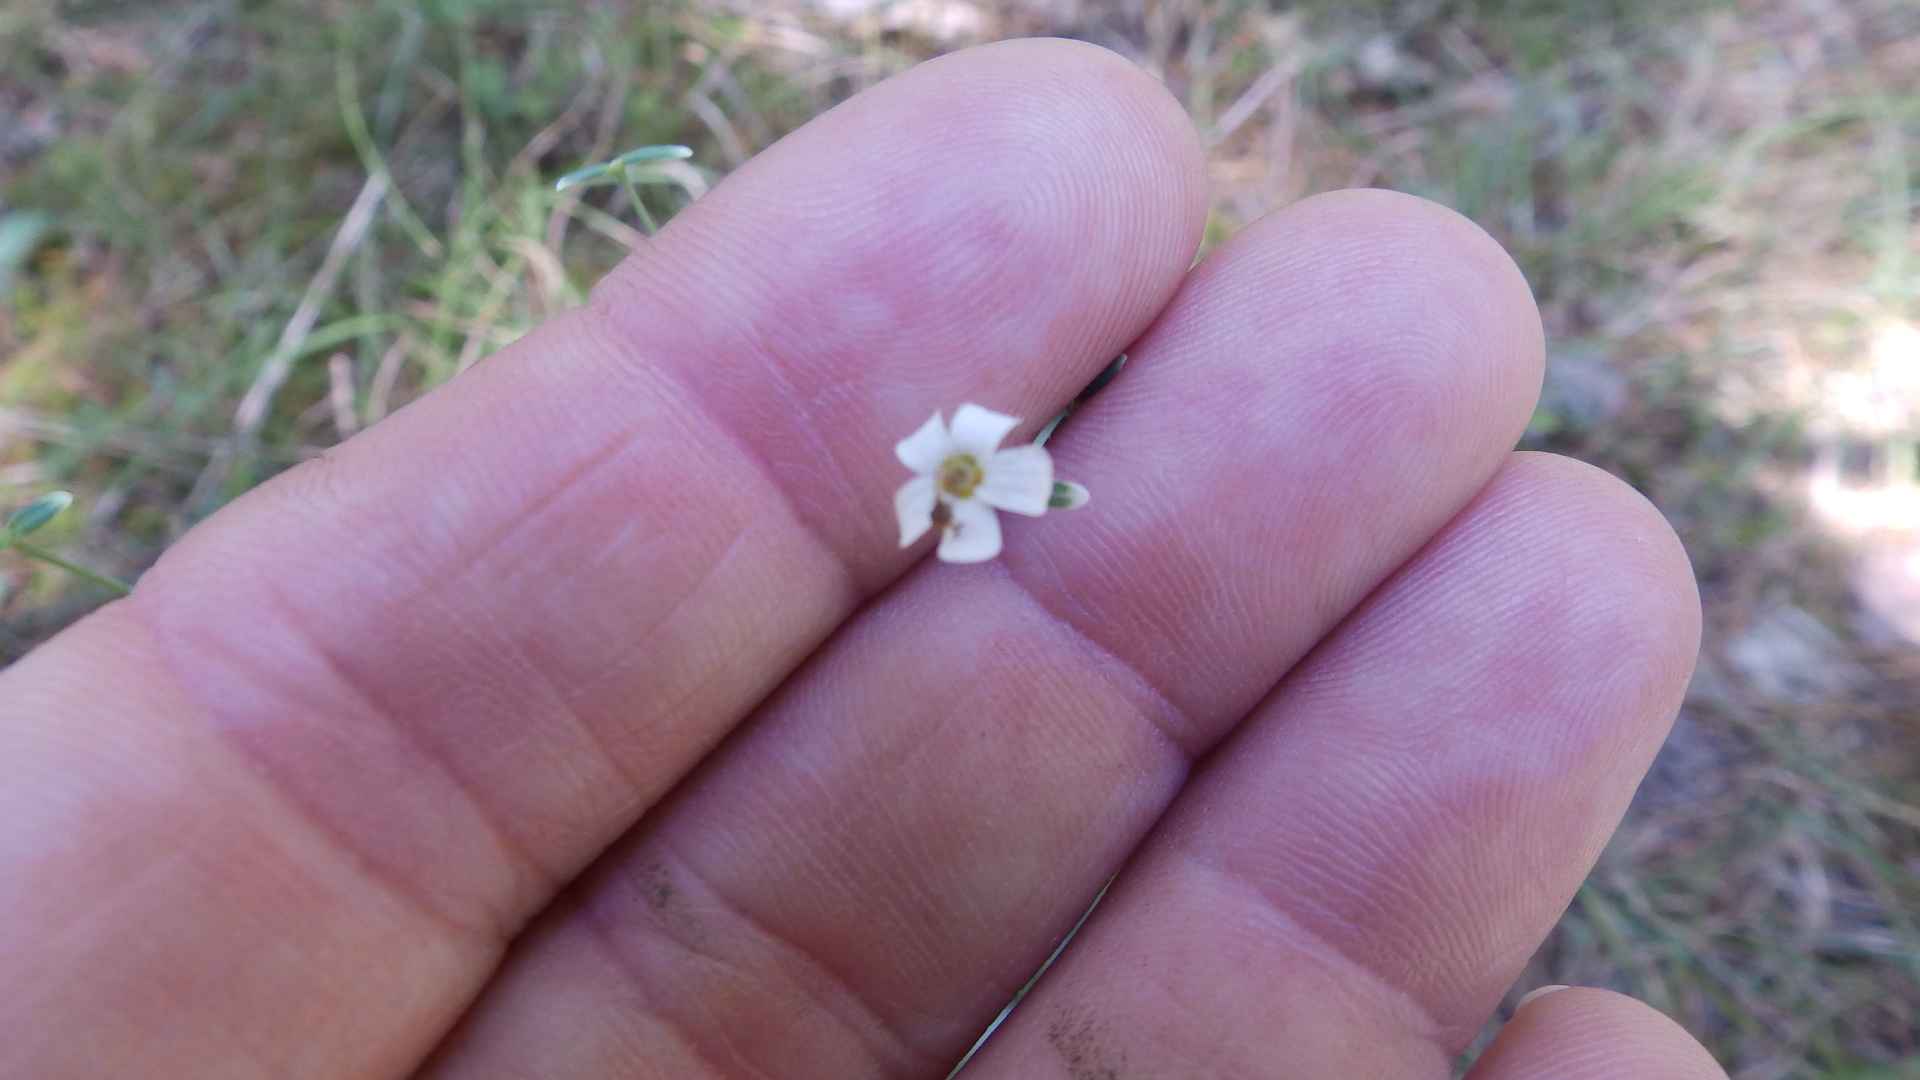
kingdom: Plantae
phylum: Tracheophyta
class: Magnoliopsida
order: Malpighiales
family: Euphorbiaceae
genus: Euphorbia
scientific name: Euphorbia corollata
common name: Flowering spurge
